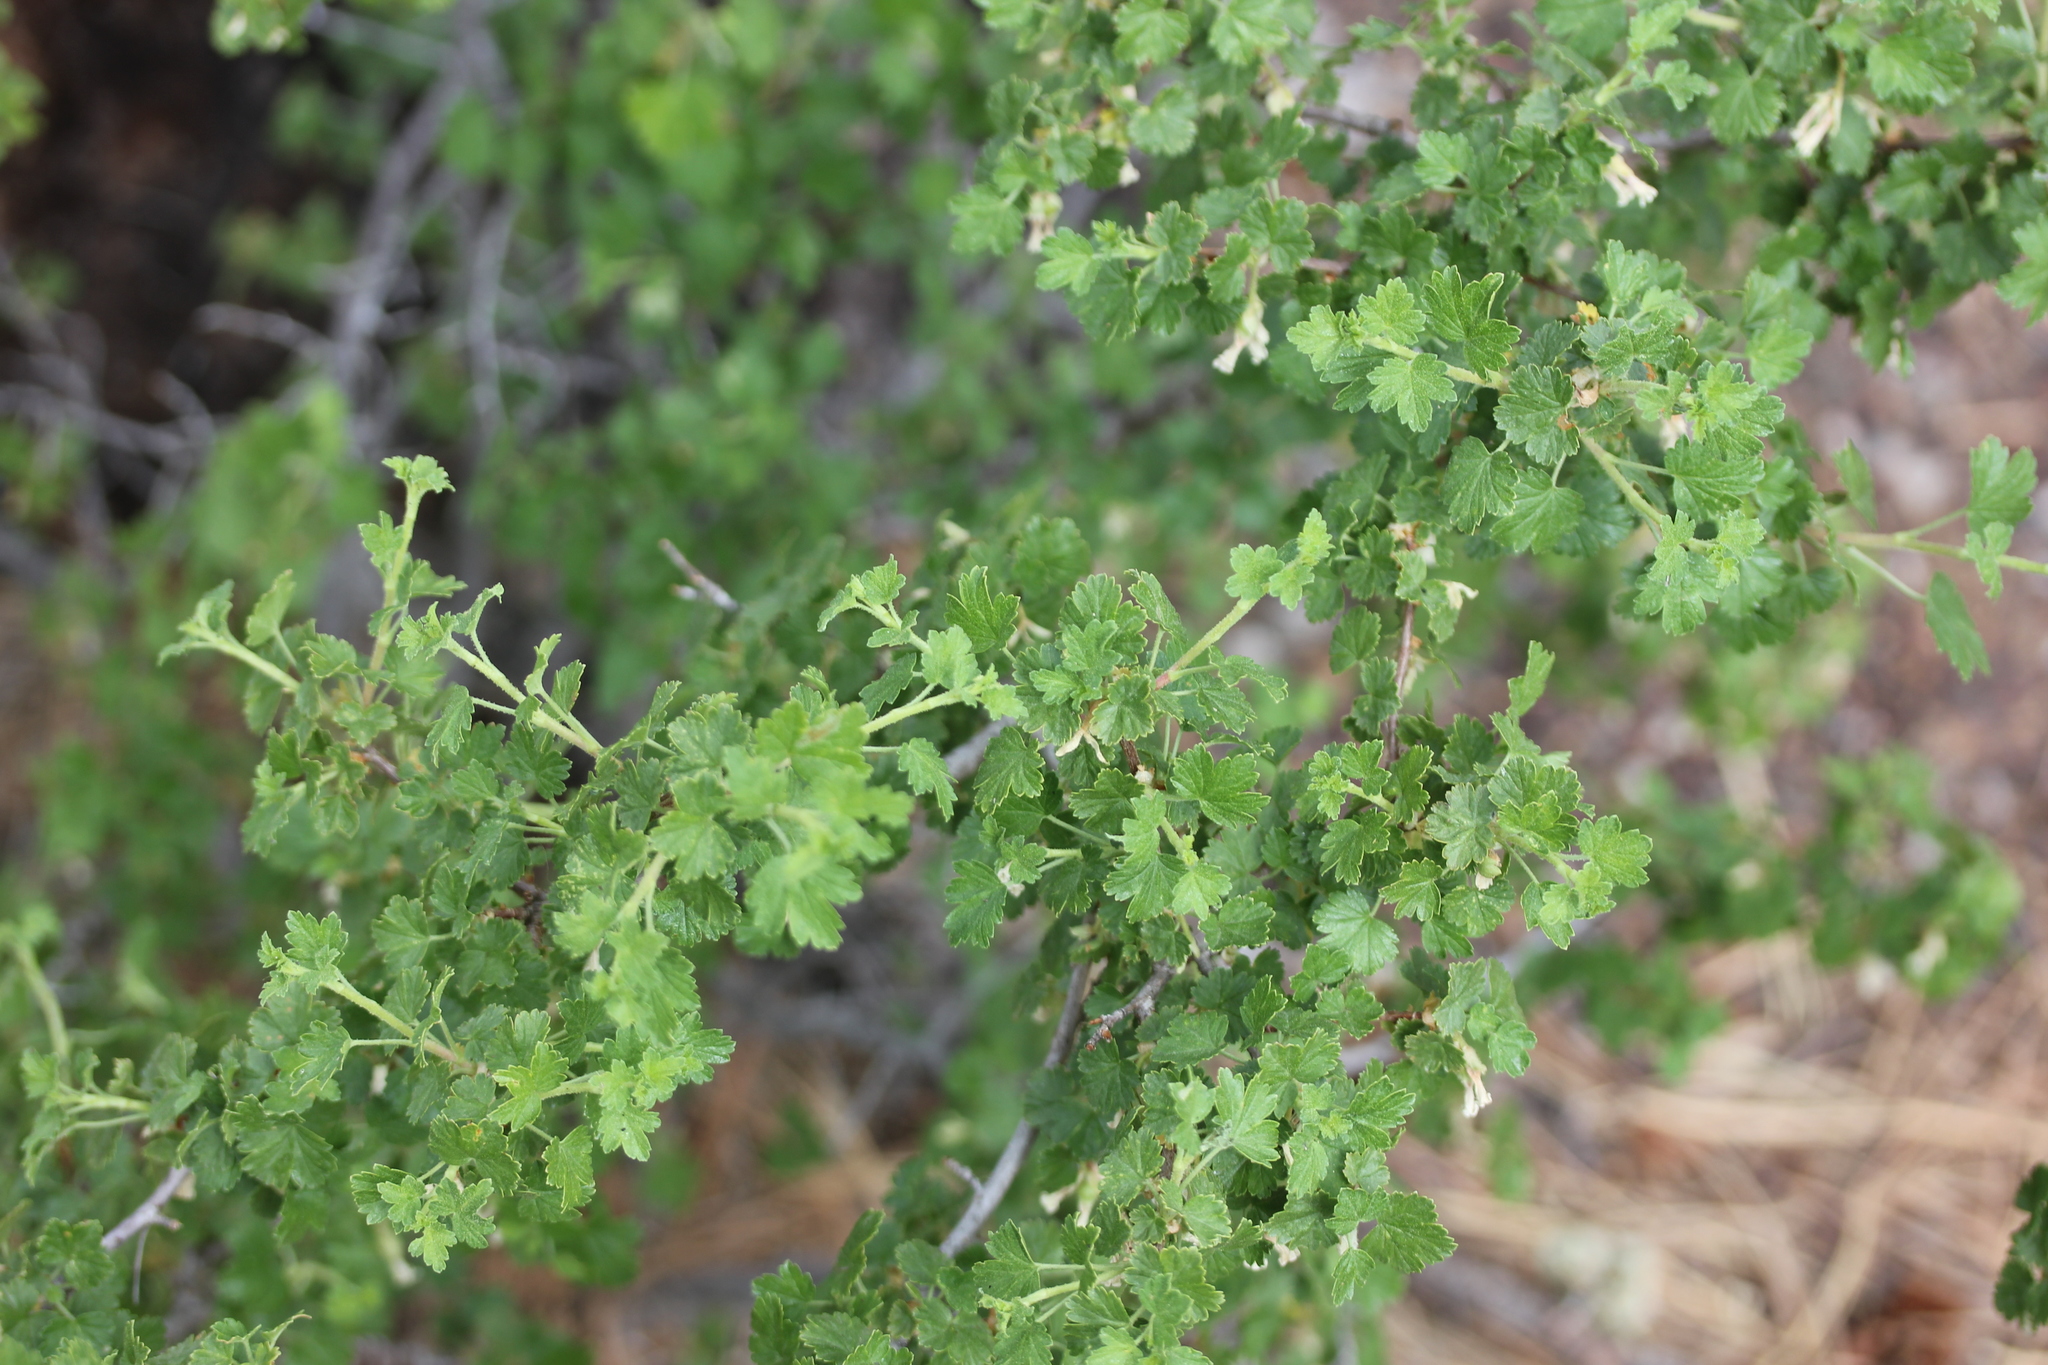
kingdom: Plantae
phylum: Tracheophyta
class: Magnoliopsida
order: Saxifragales
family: Grossulariaceae
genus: Ribes
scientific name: Ribes cereum
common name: Wax currant
